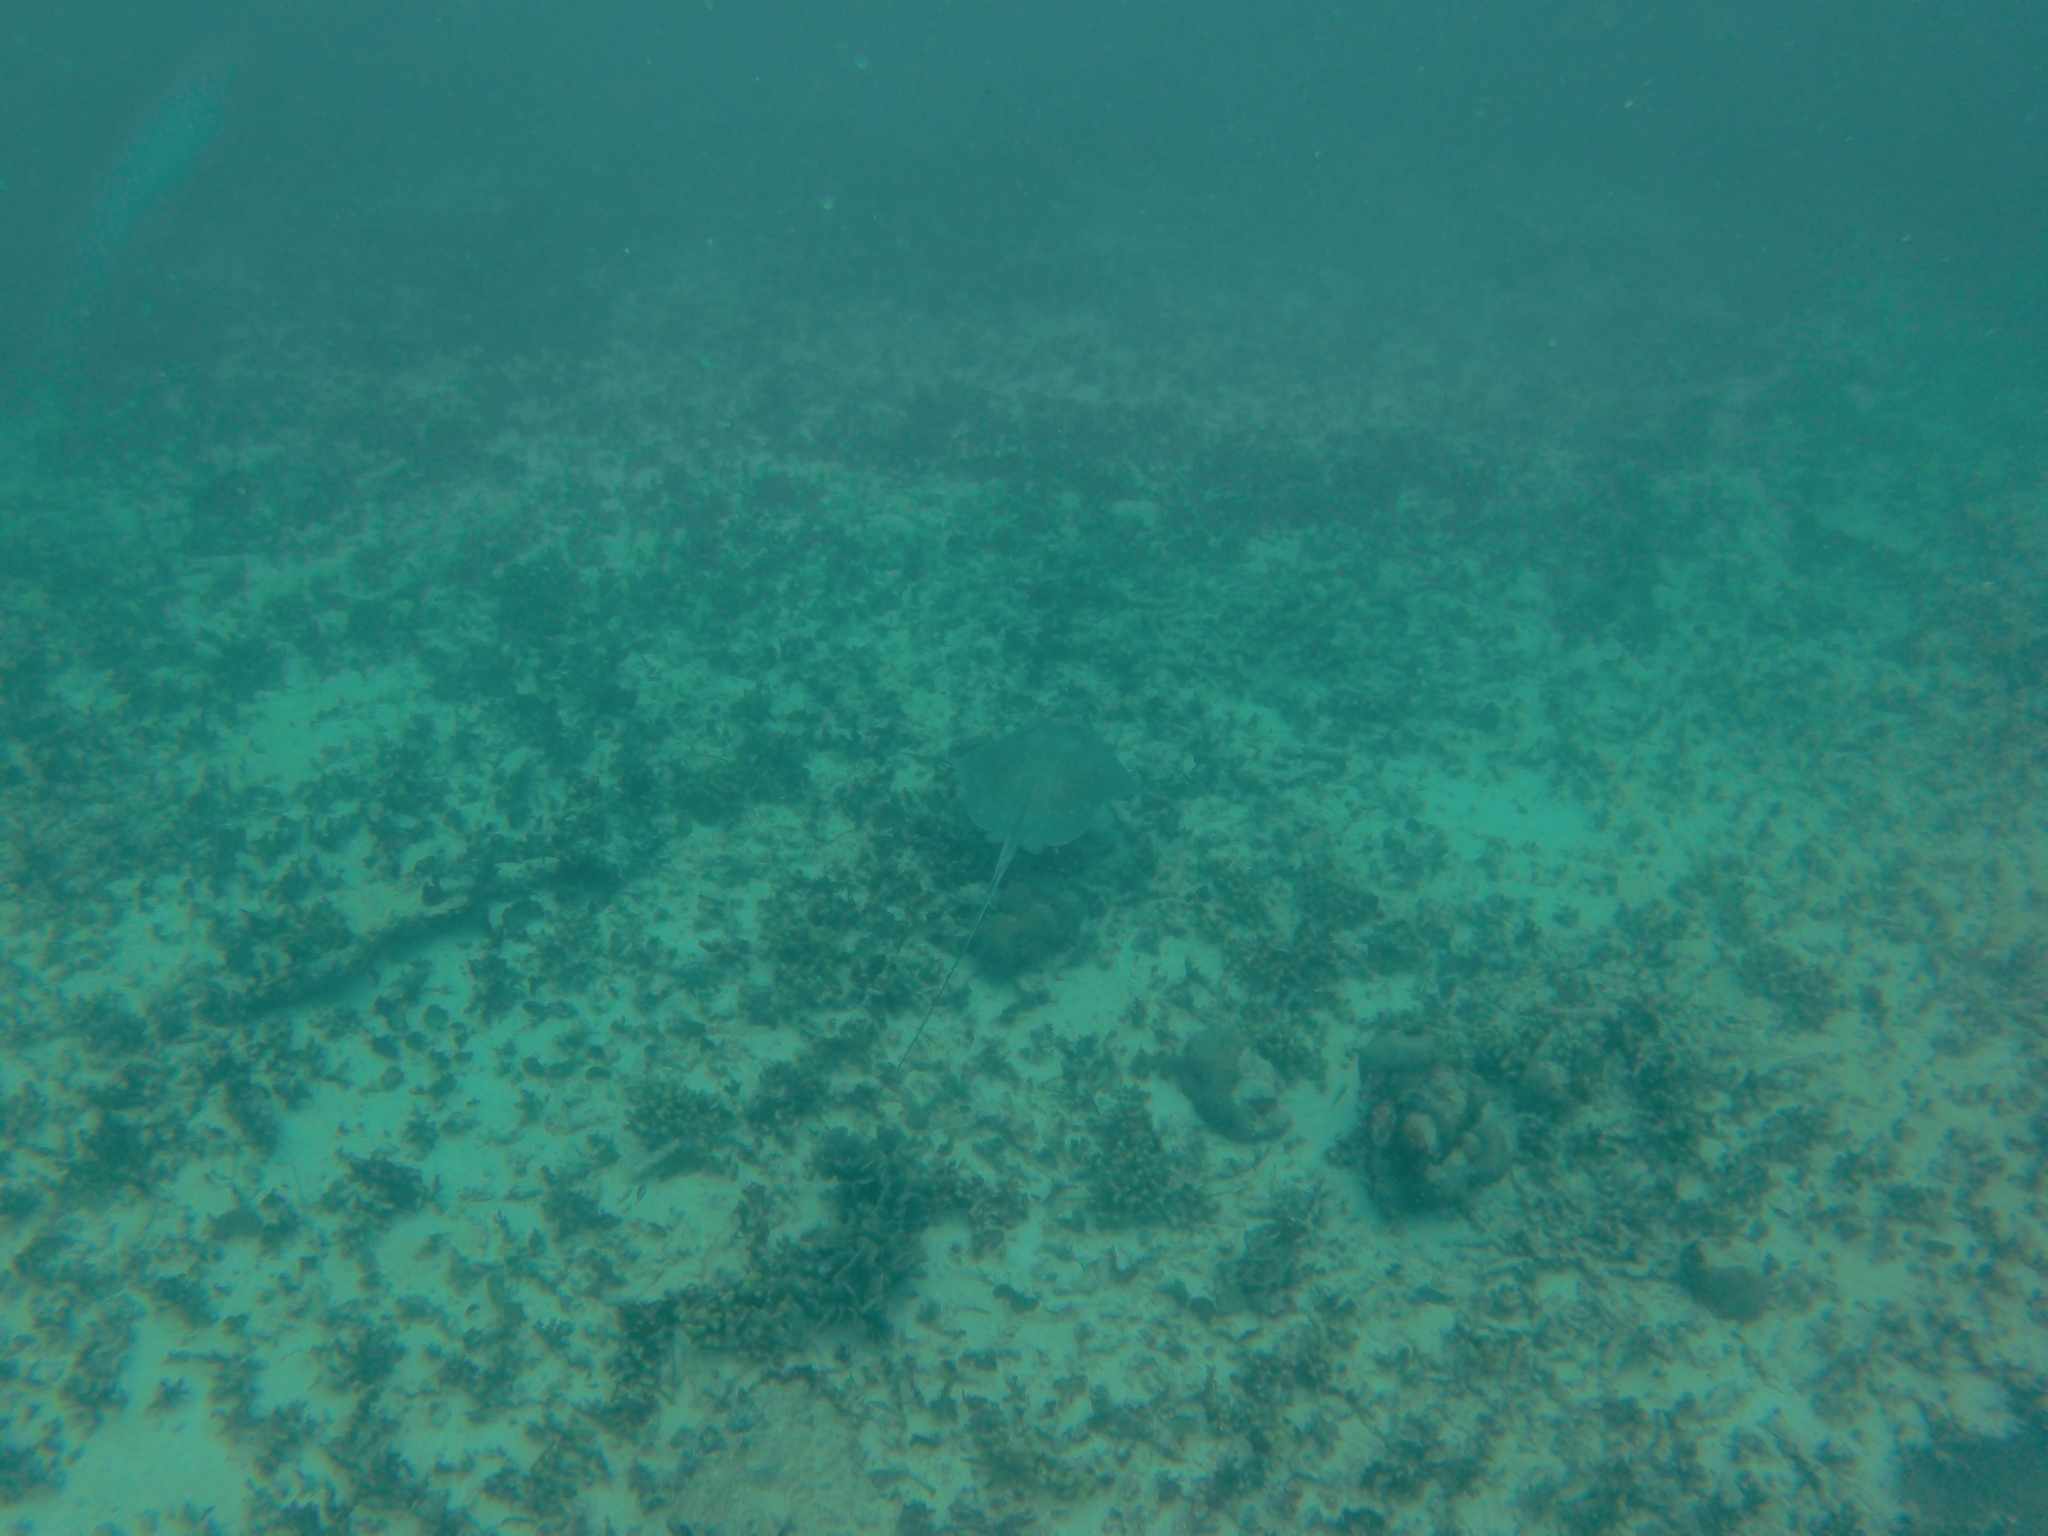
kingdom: Animalia
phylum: Chordata
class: Elasmobranchii
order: Myliobatiformes
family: Dasyatidae
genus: Hypanus
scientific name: Hypanus americanus
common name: Southern stingray
